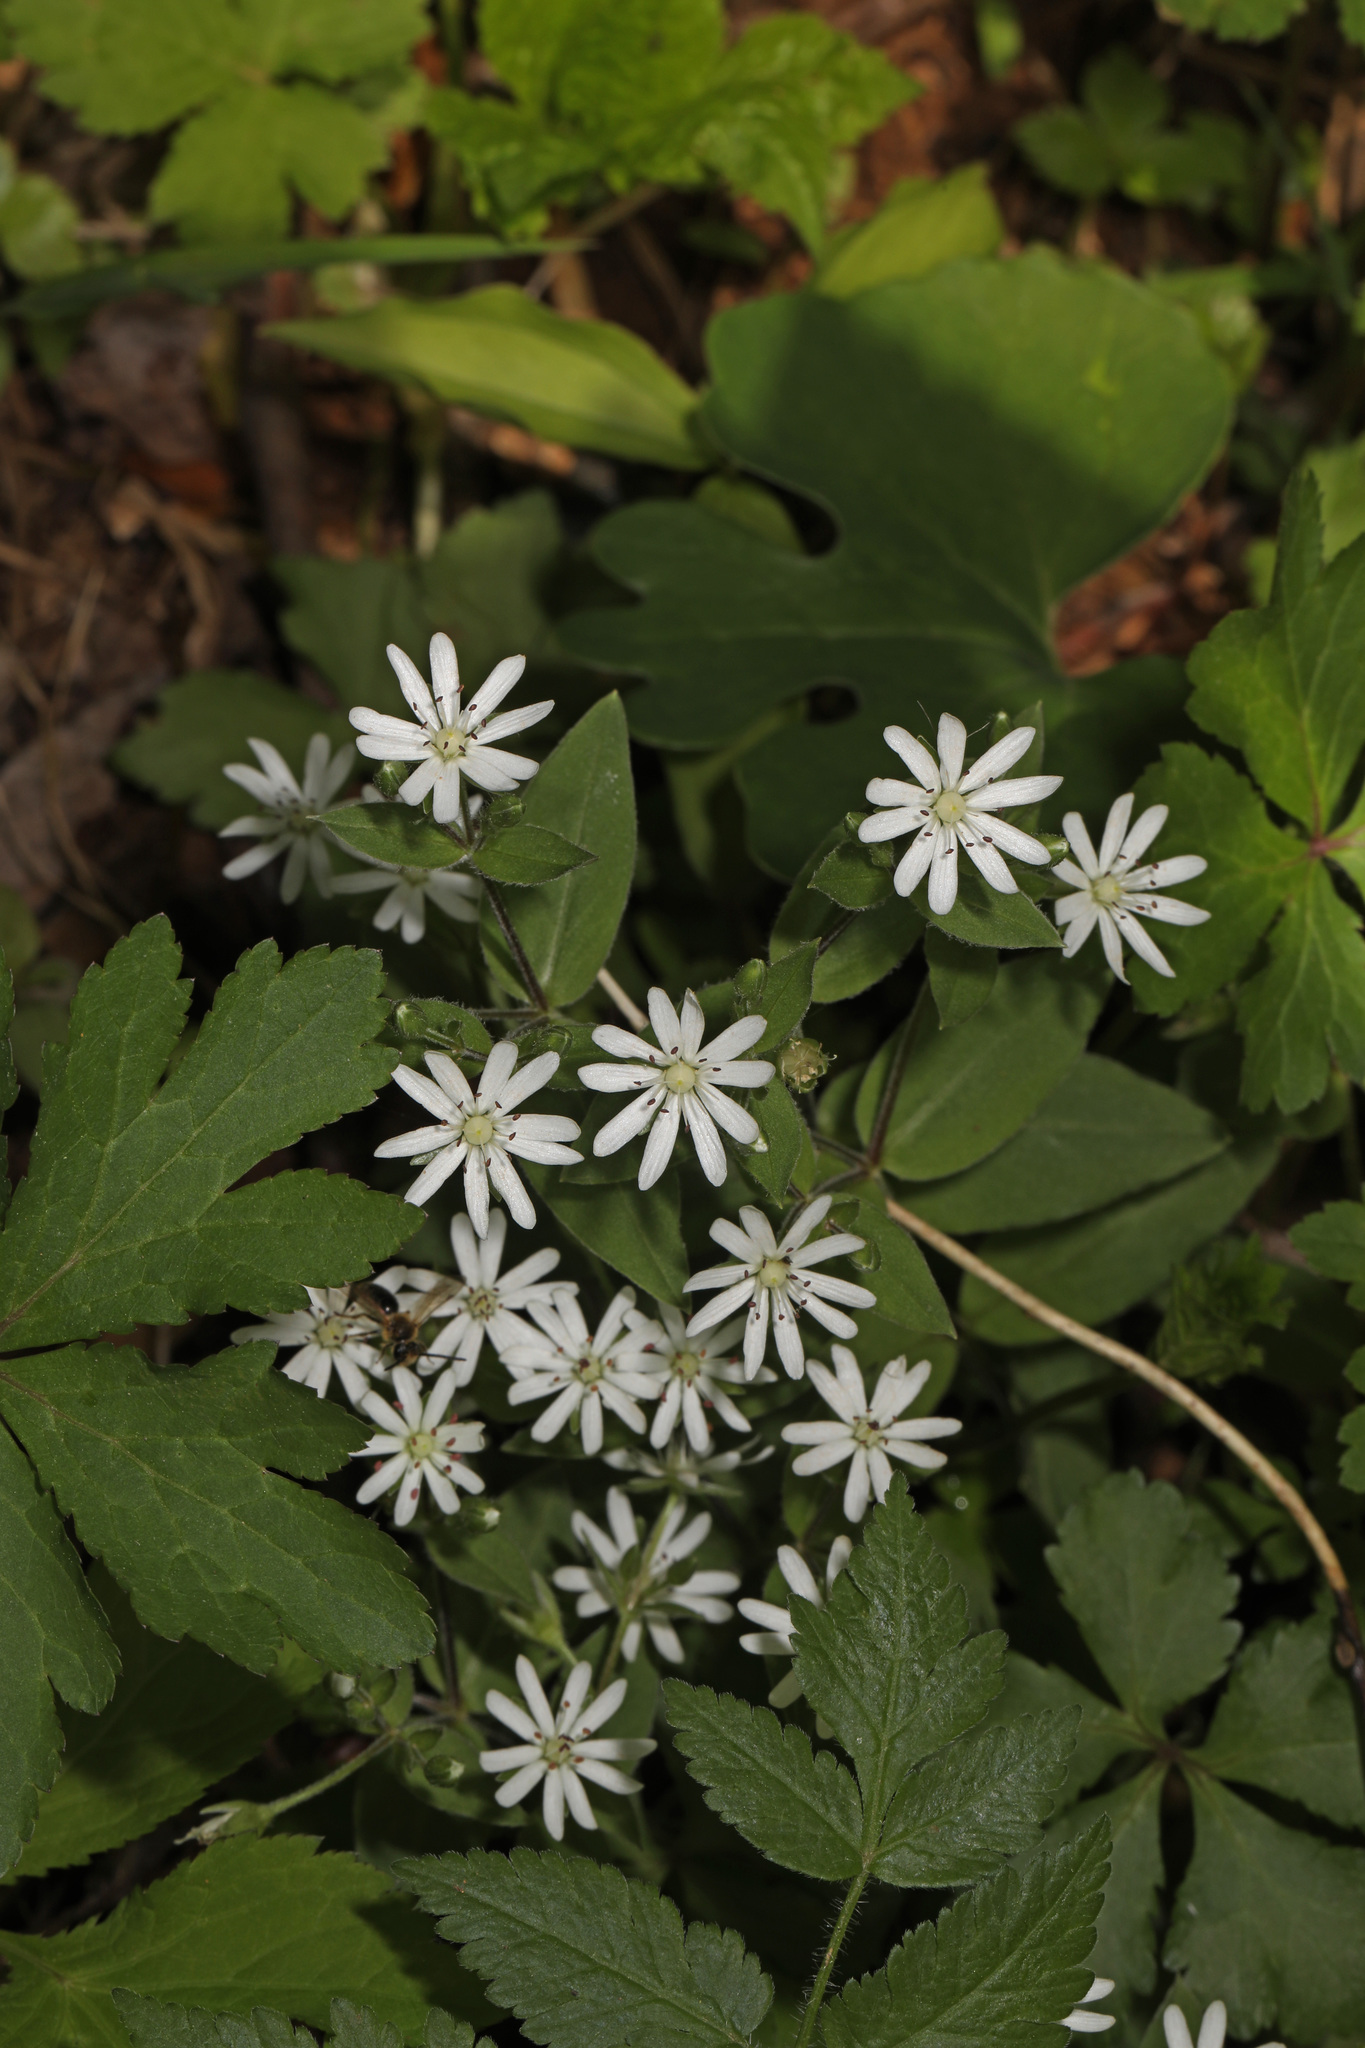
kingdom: Plantae
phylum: Tracheophyta
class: Magnoliopsida
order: Caryophyllales
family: Caryophyllaceae
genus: Stellaria
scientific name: Stellaria pubera
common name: Star chickweed
